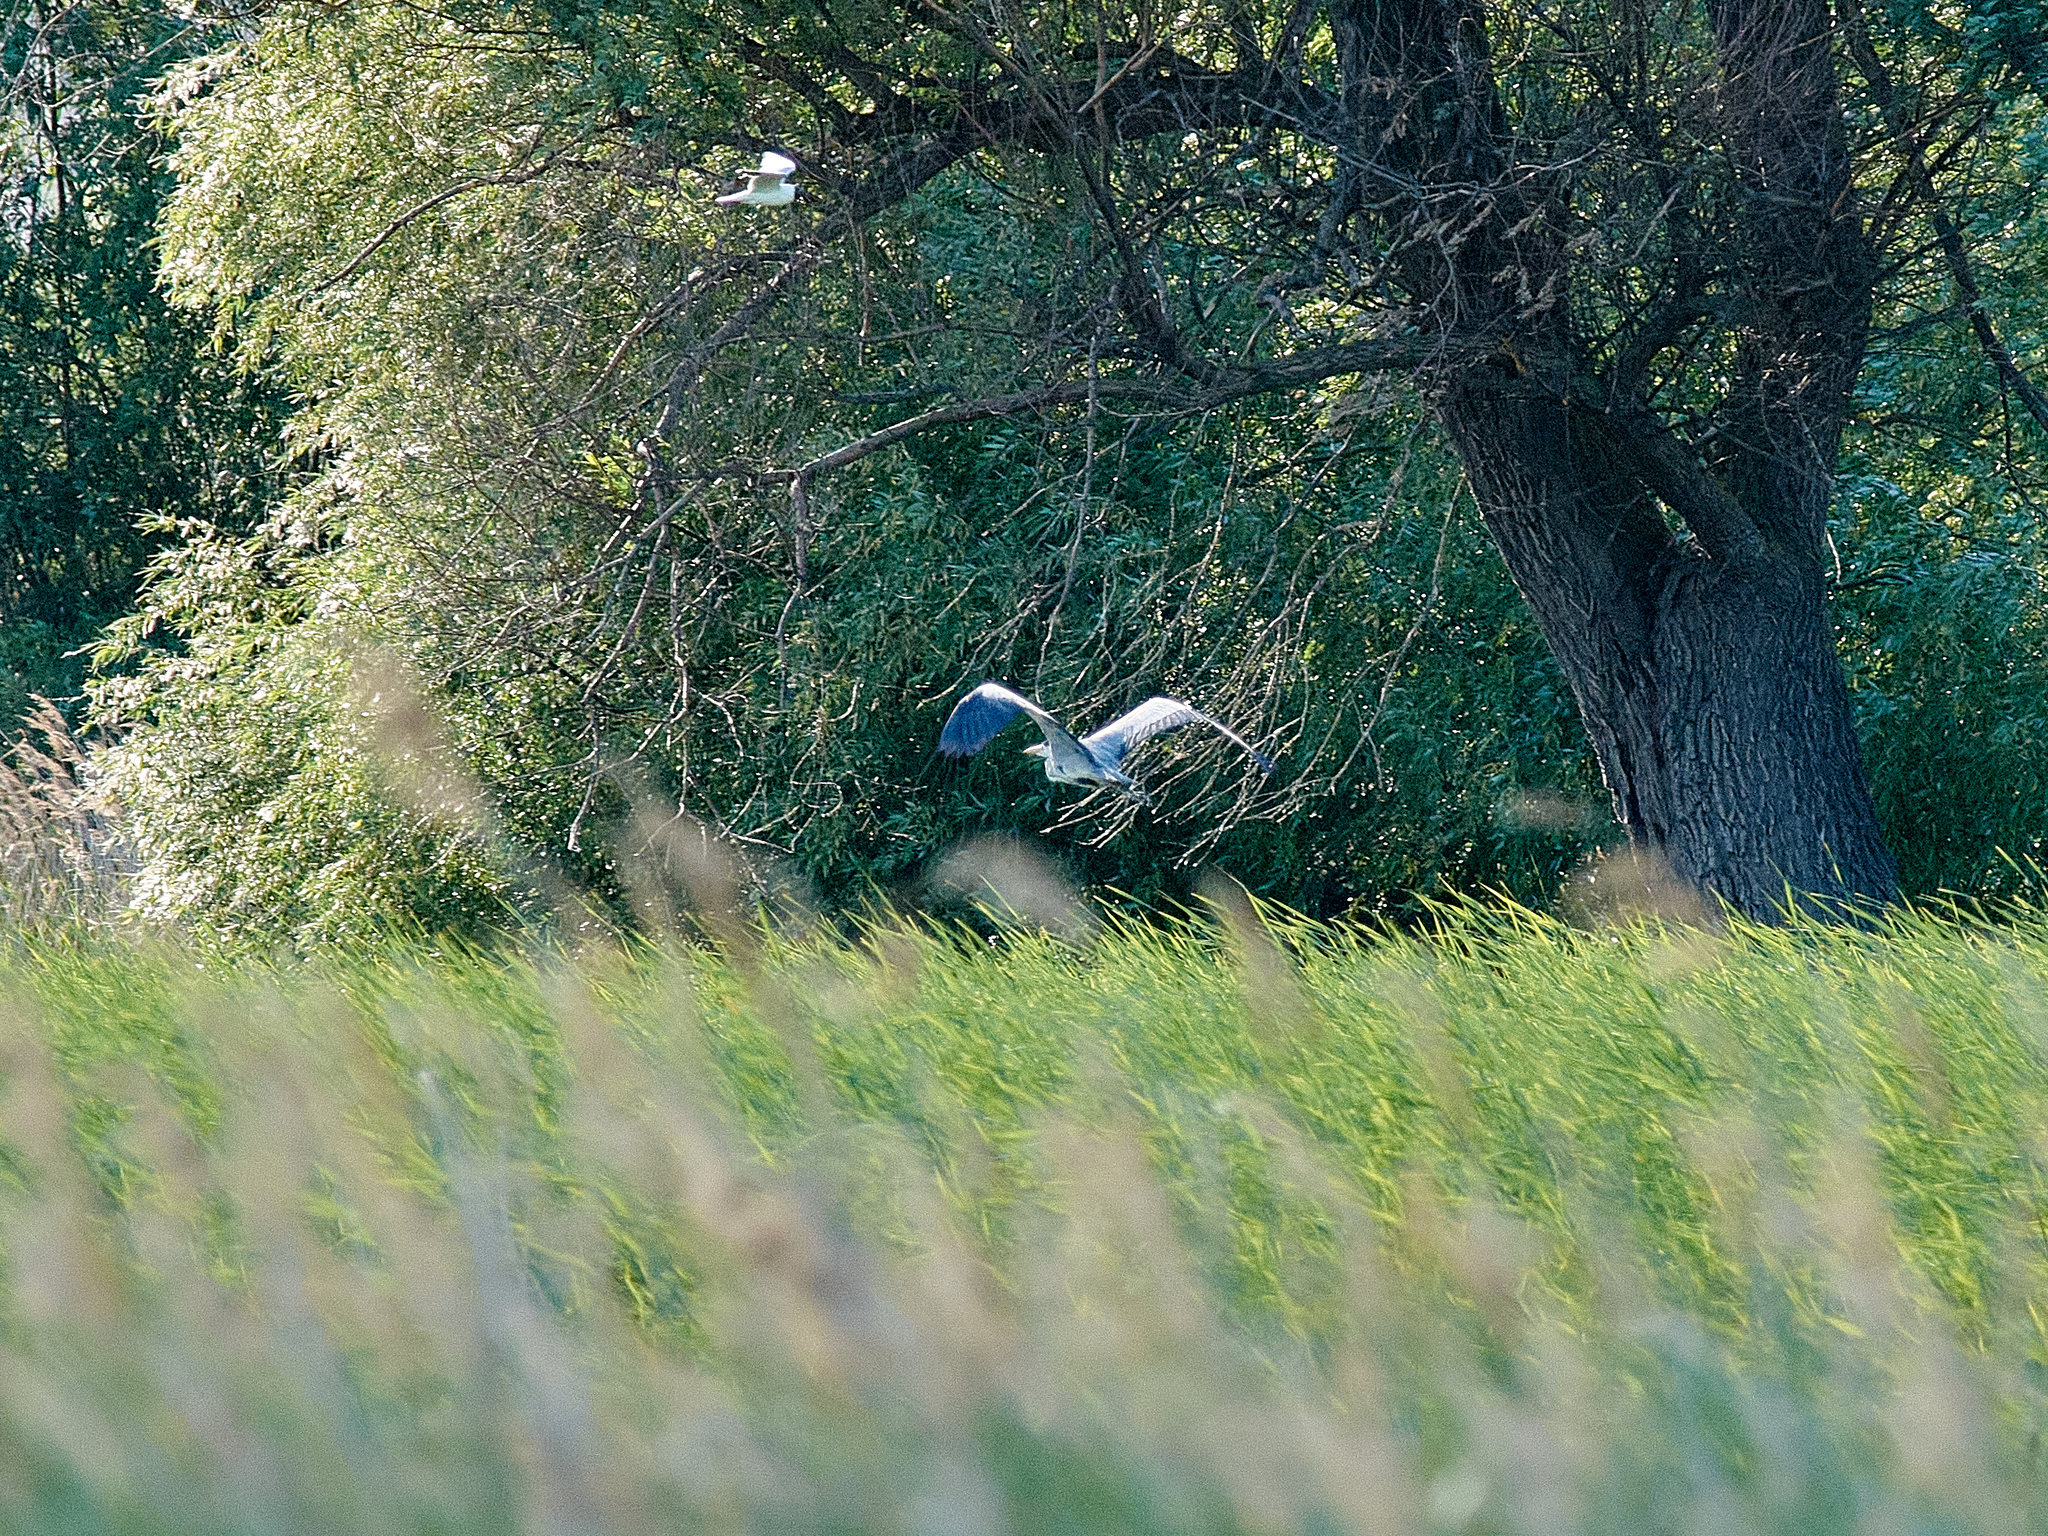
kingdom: Animalia
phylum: Chordata
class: Aves
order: Pelecaniformes
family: Ardeidae
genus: Ardea
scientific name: Ardea cinerea
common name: Grey heron
